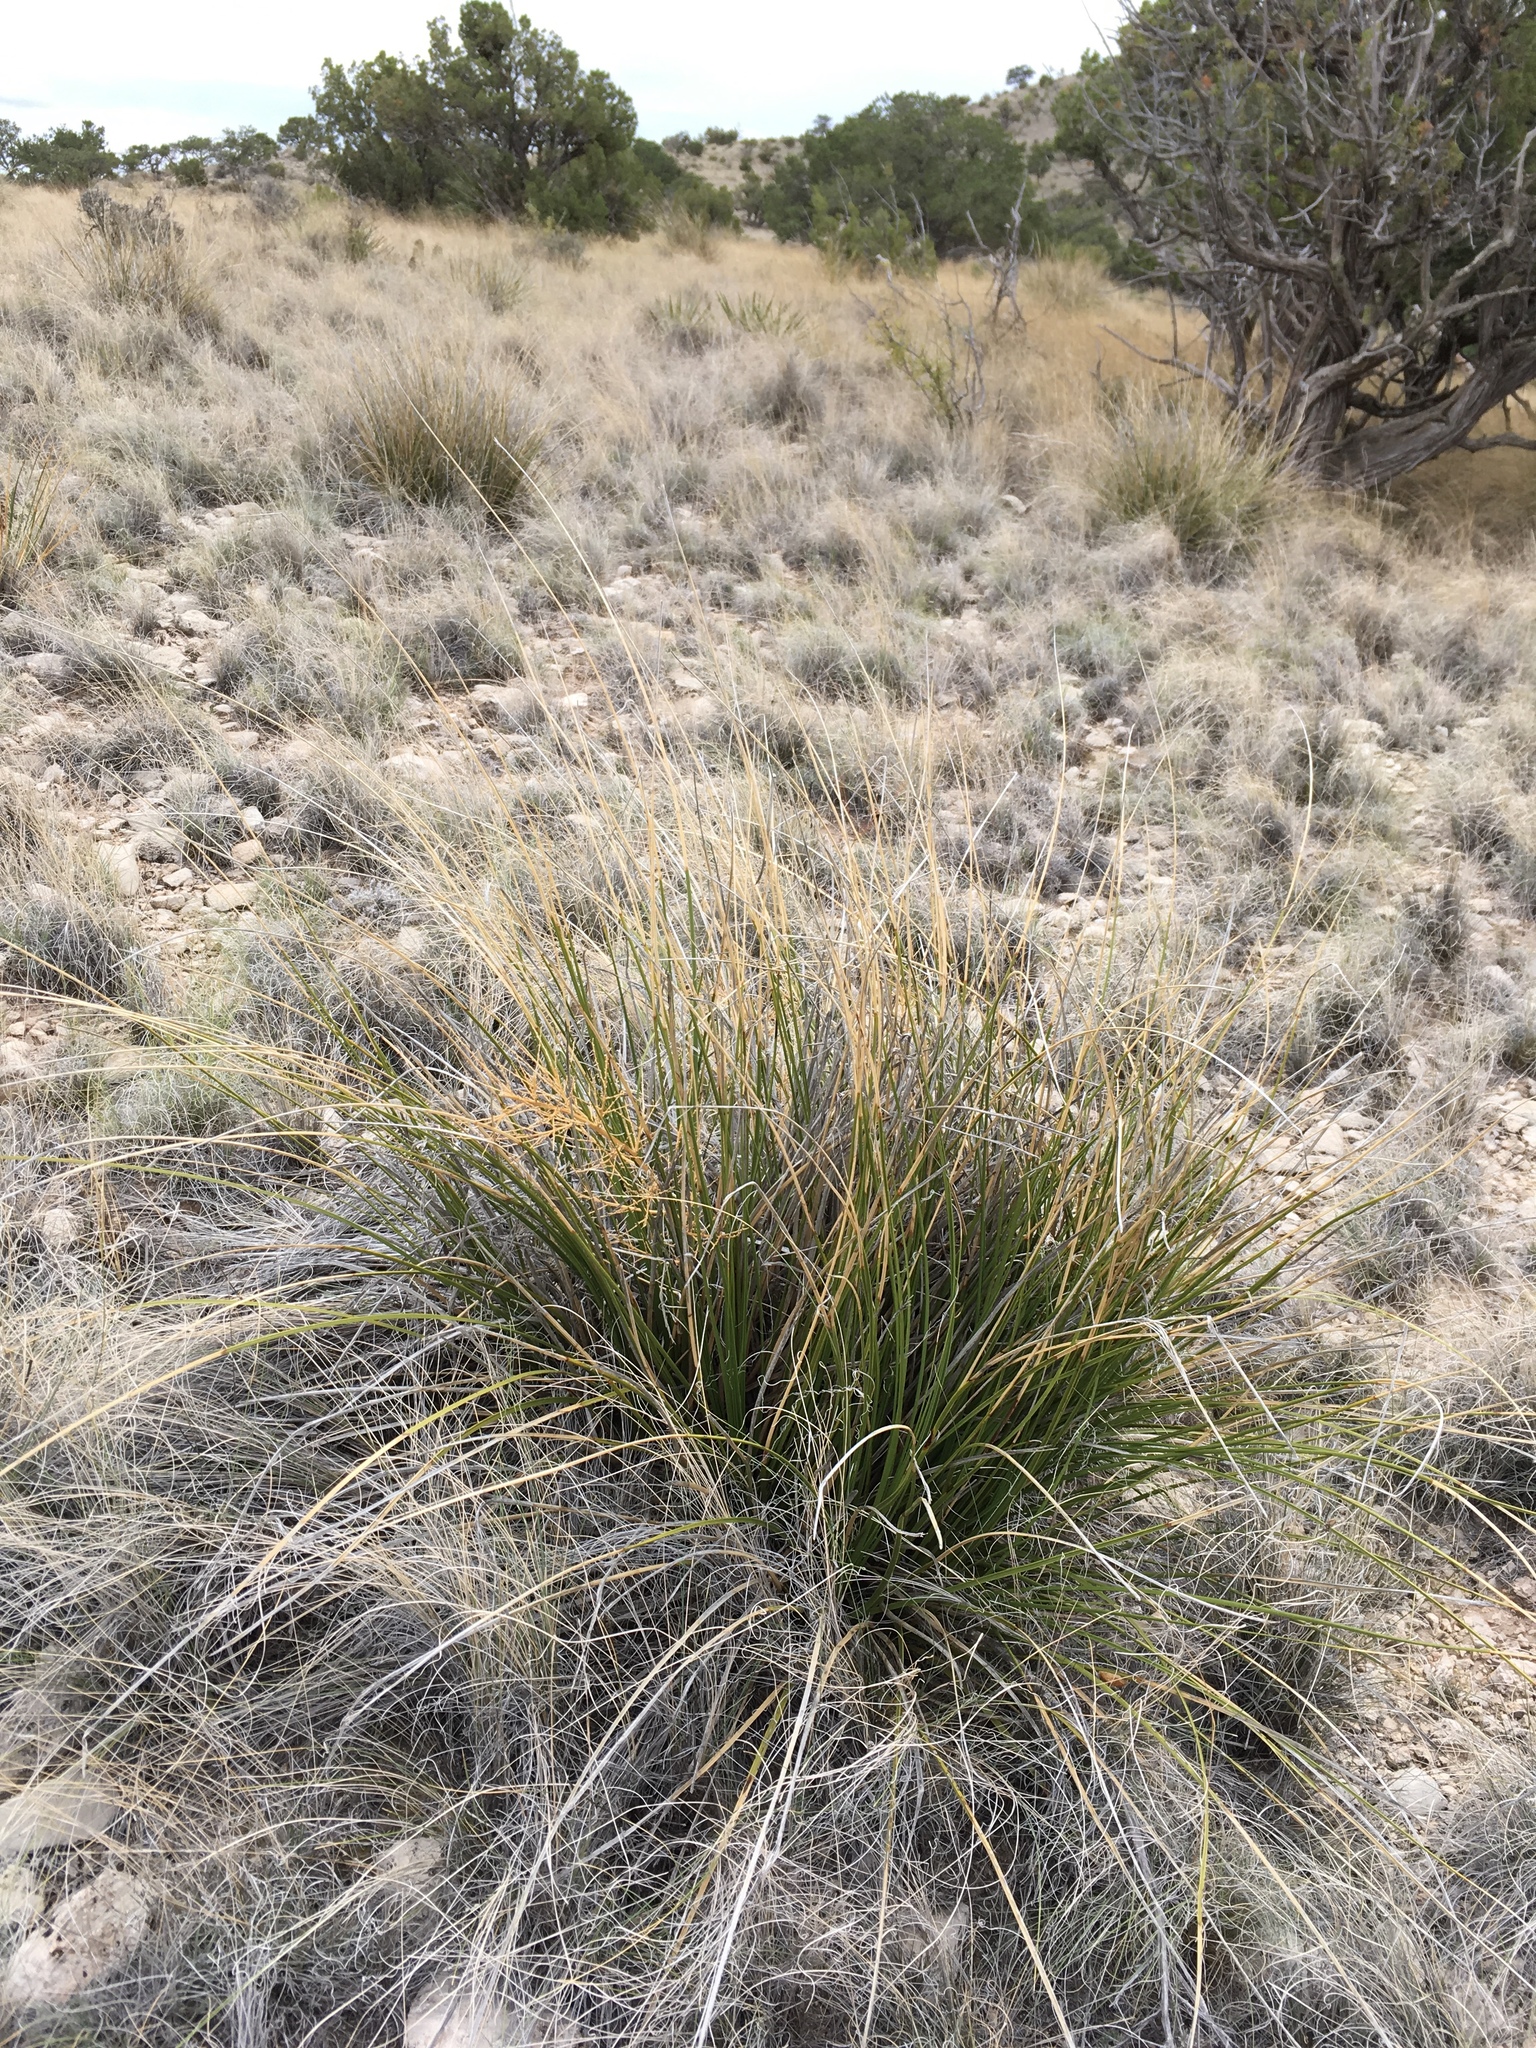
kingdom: Plantae
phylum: Tracheophyta
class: Liliopsida
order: Asparagales
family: Asparagaceae
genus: Nolina
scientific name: Nolina texana
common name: Texas sacahuiste
